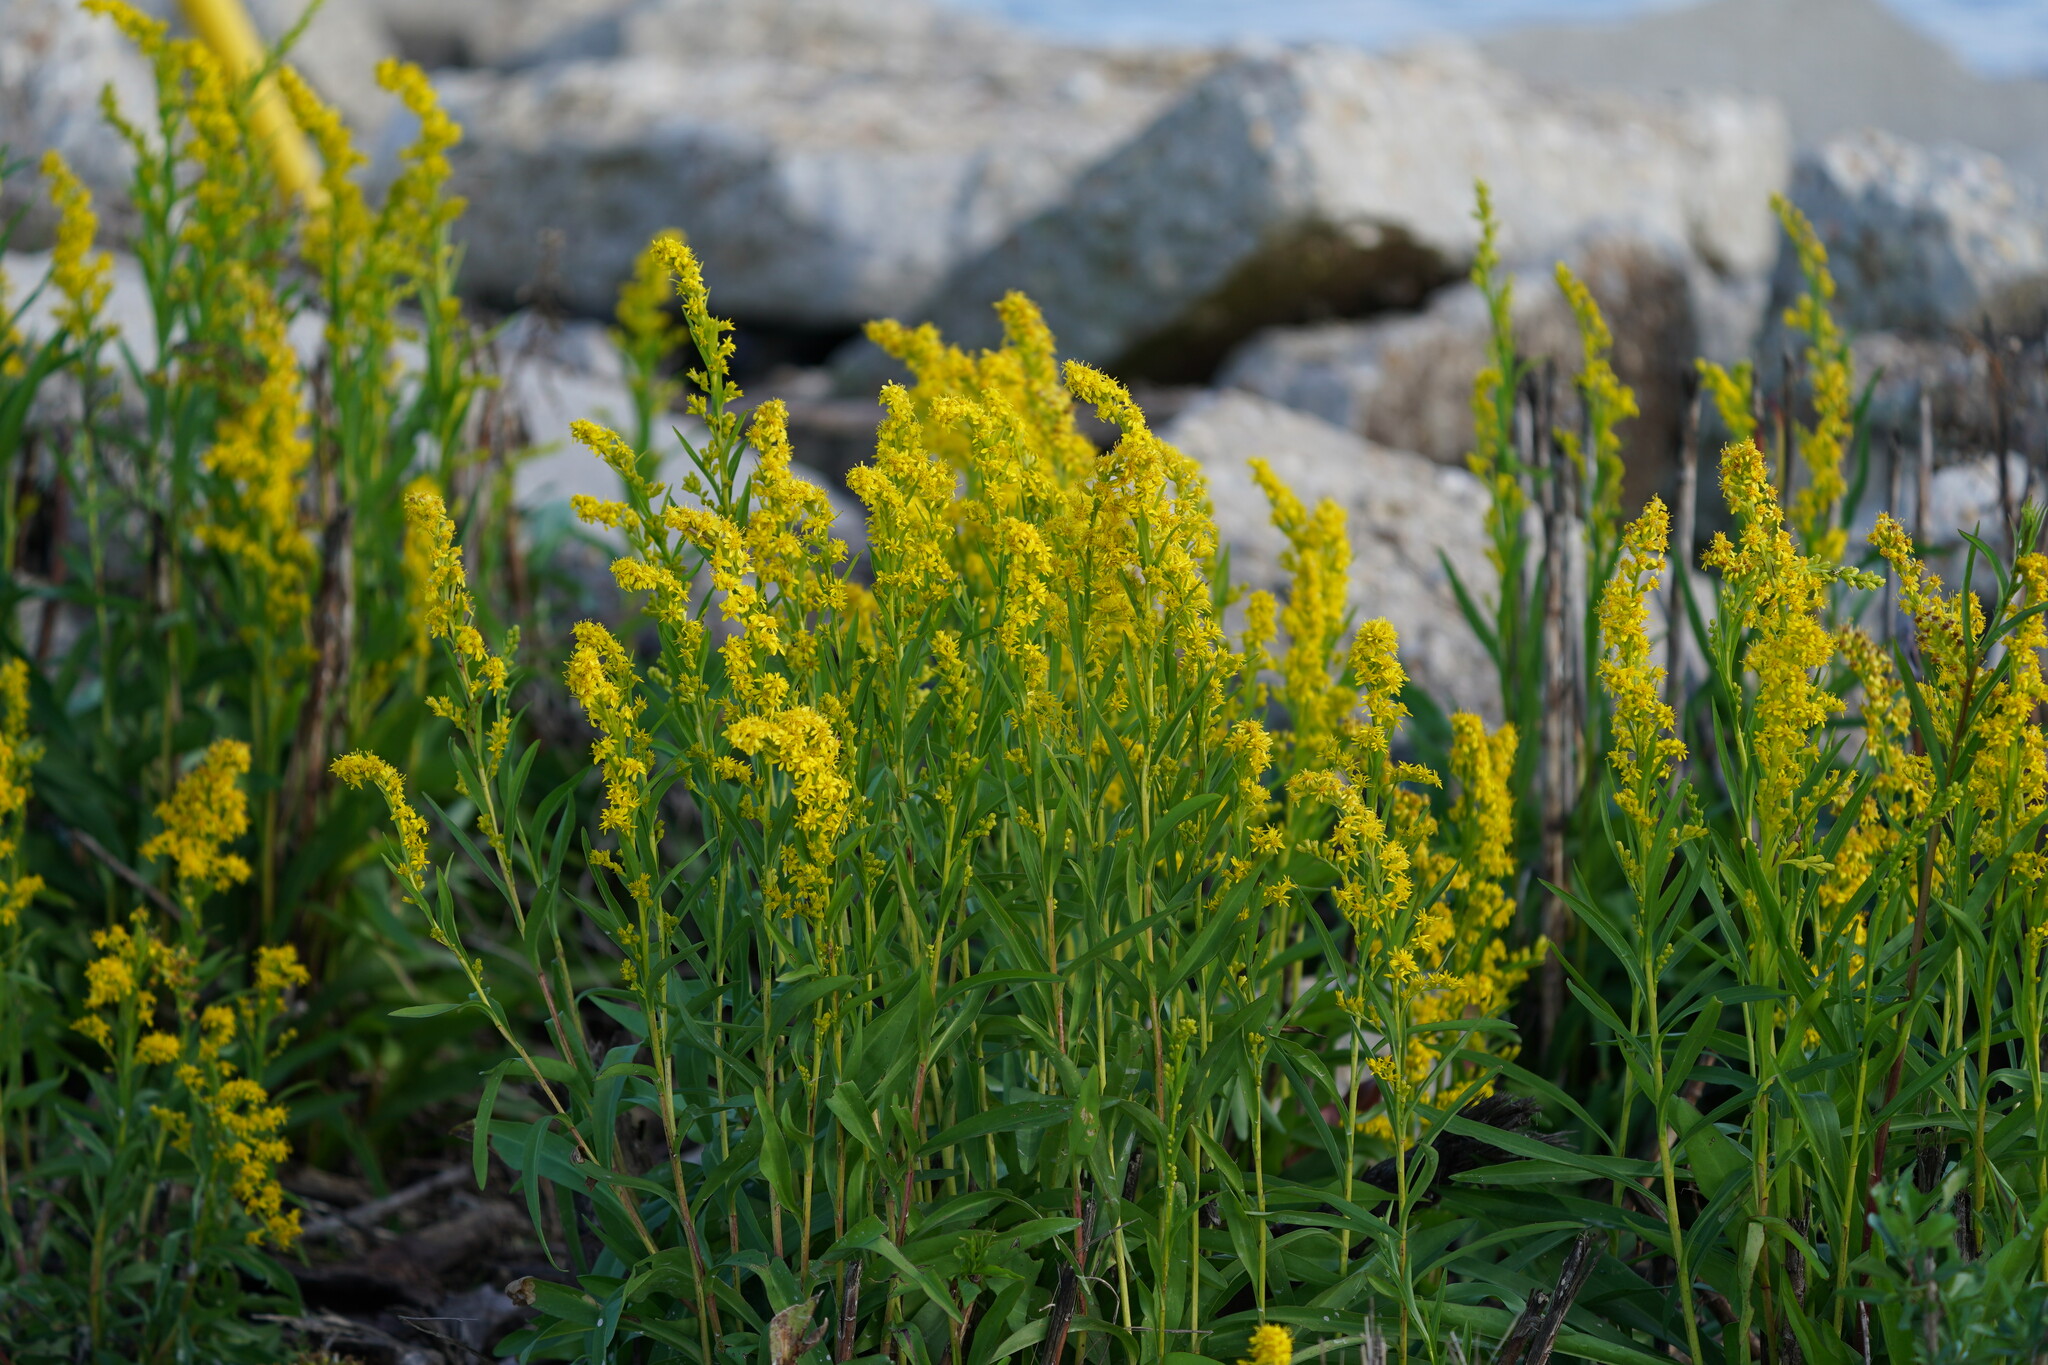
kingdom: Plantae
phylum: Tracheophyta
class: Magnoliopsida
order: Asterales
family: Asteraceae
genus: Solidago
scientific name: Solidago mexicana
